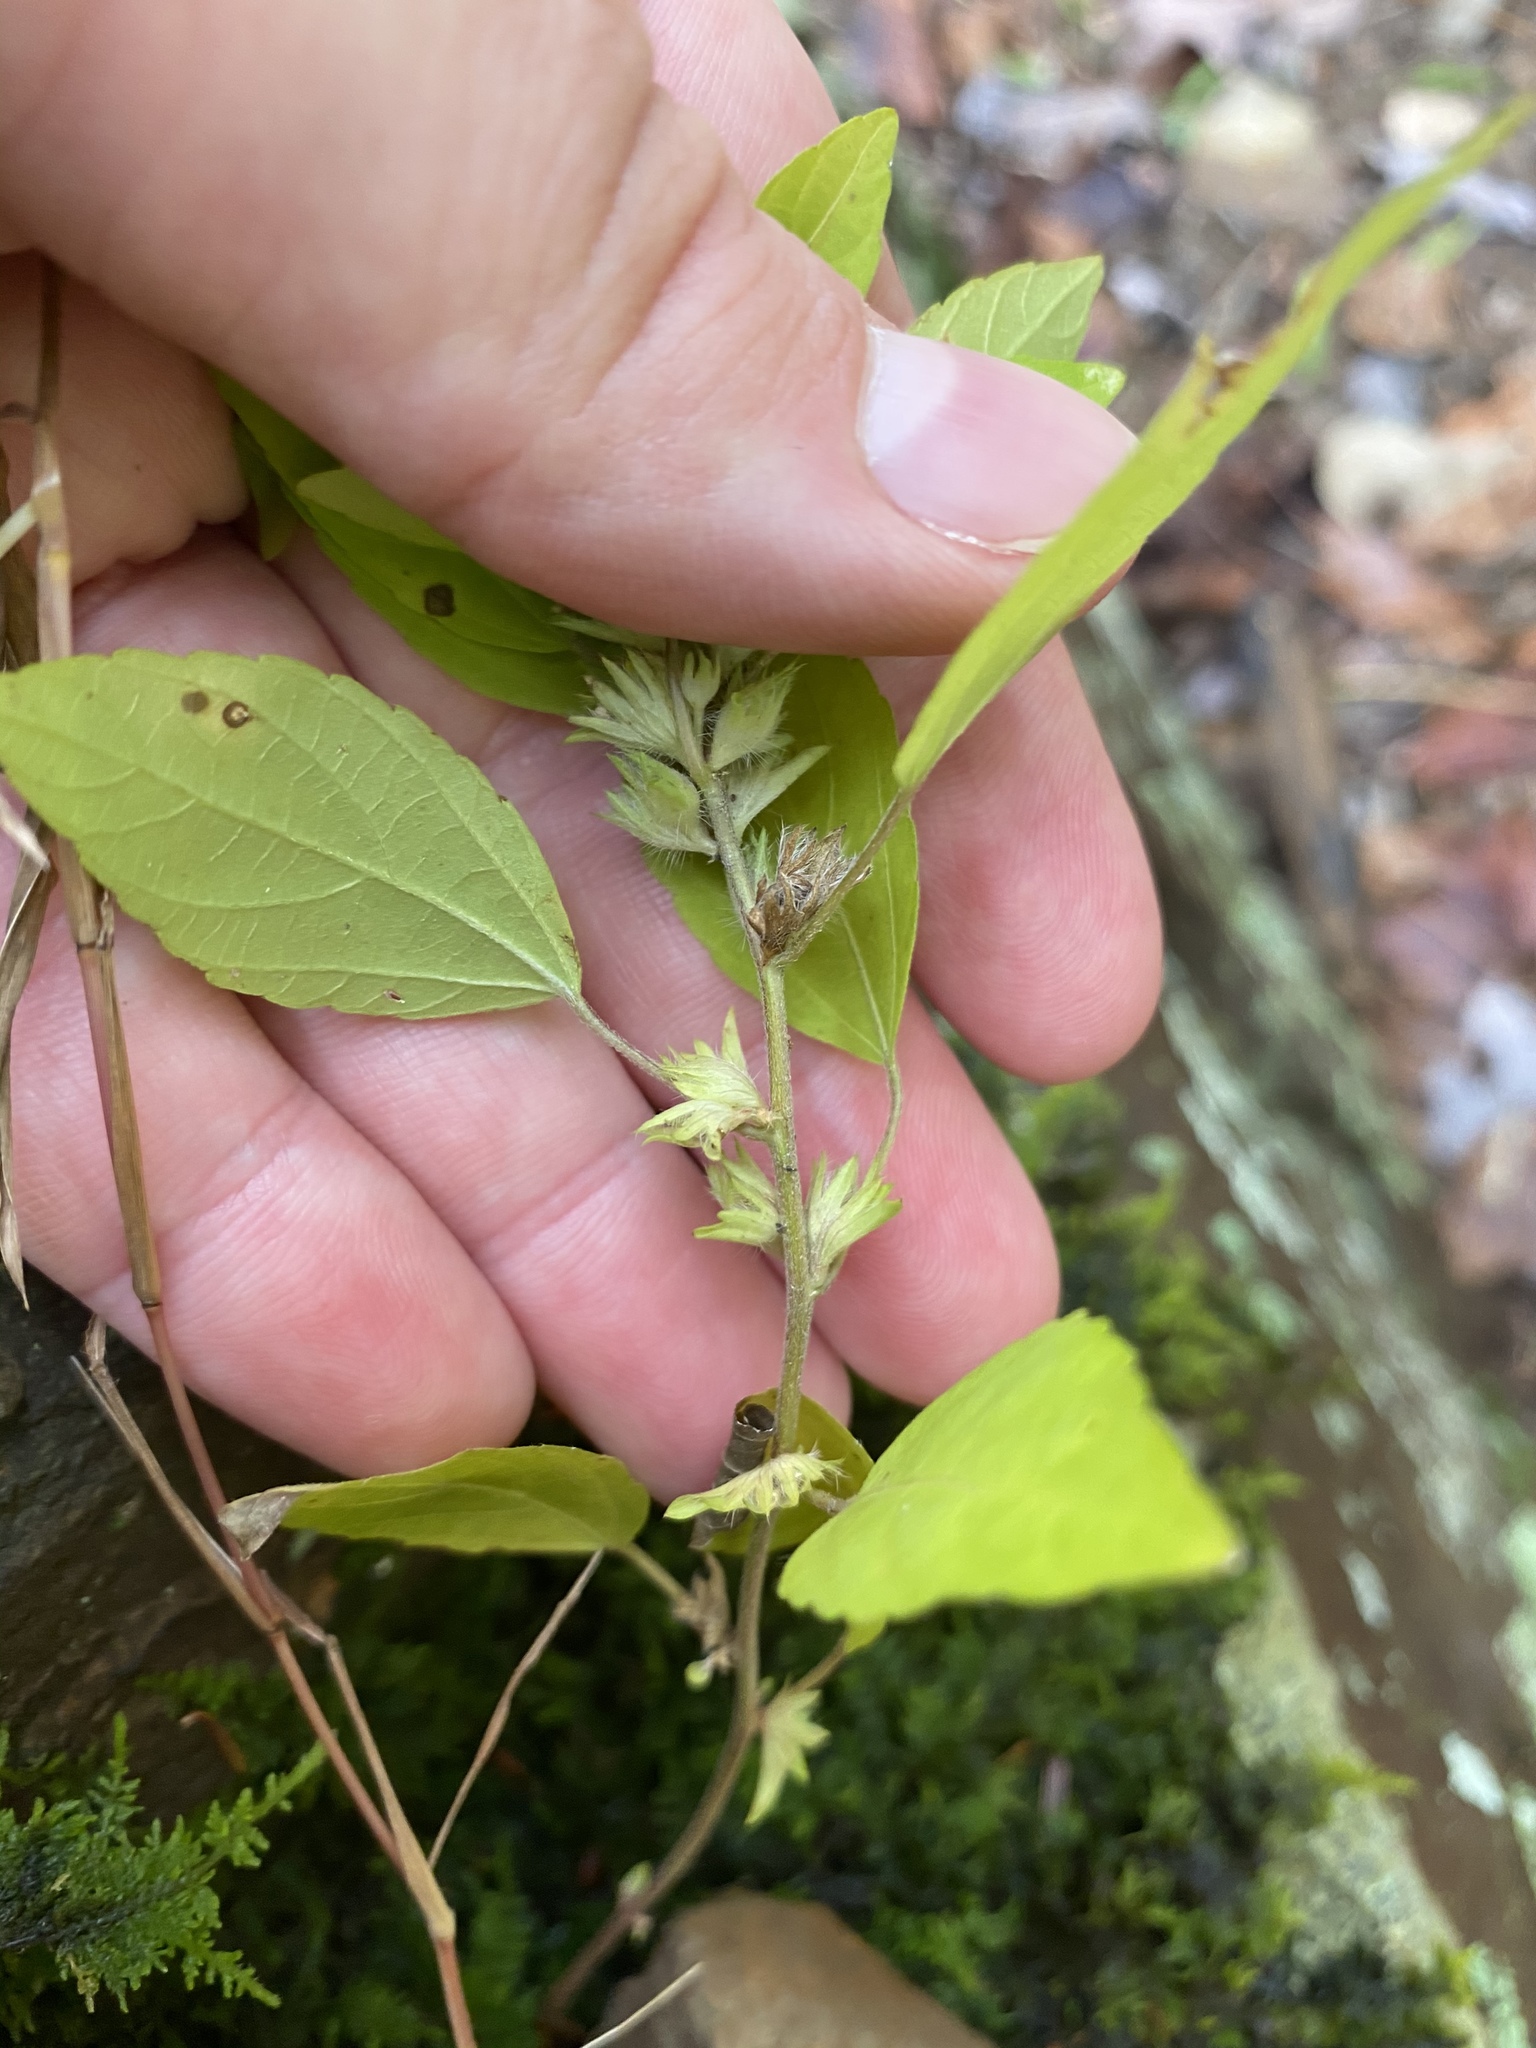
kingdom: Plantae
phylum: Tracheophyta
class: Magnoliopsida
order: Malpighiales
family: Euphorbiaceae
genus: Acalypha
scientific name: Acalypha virginica
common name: Virginia copperleaf
